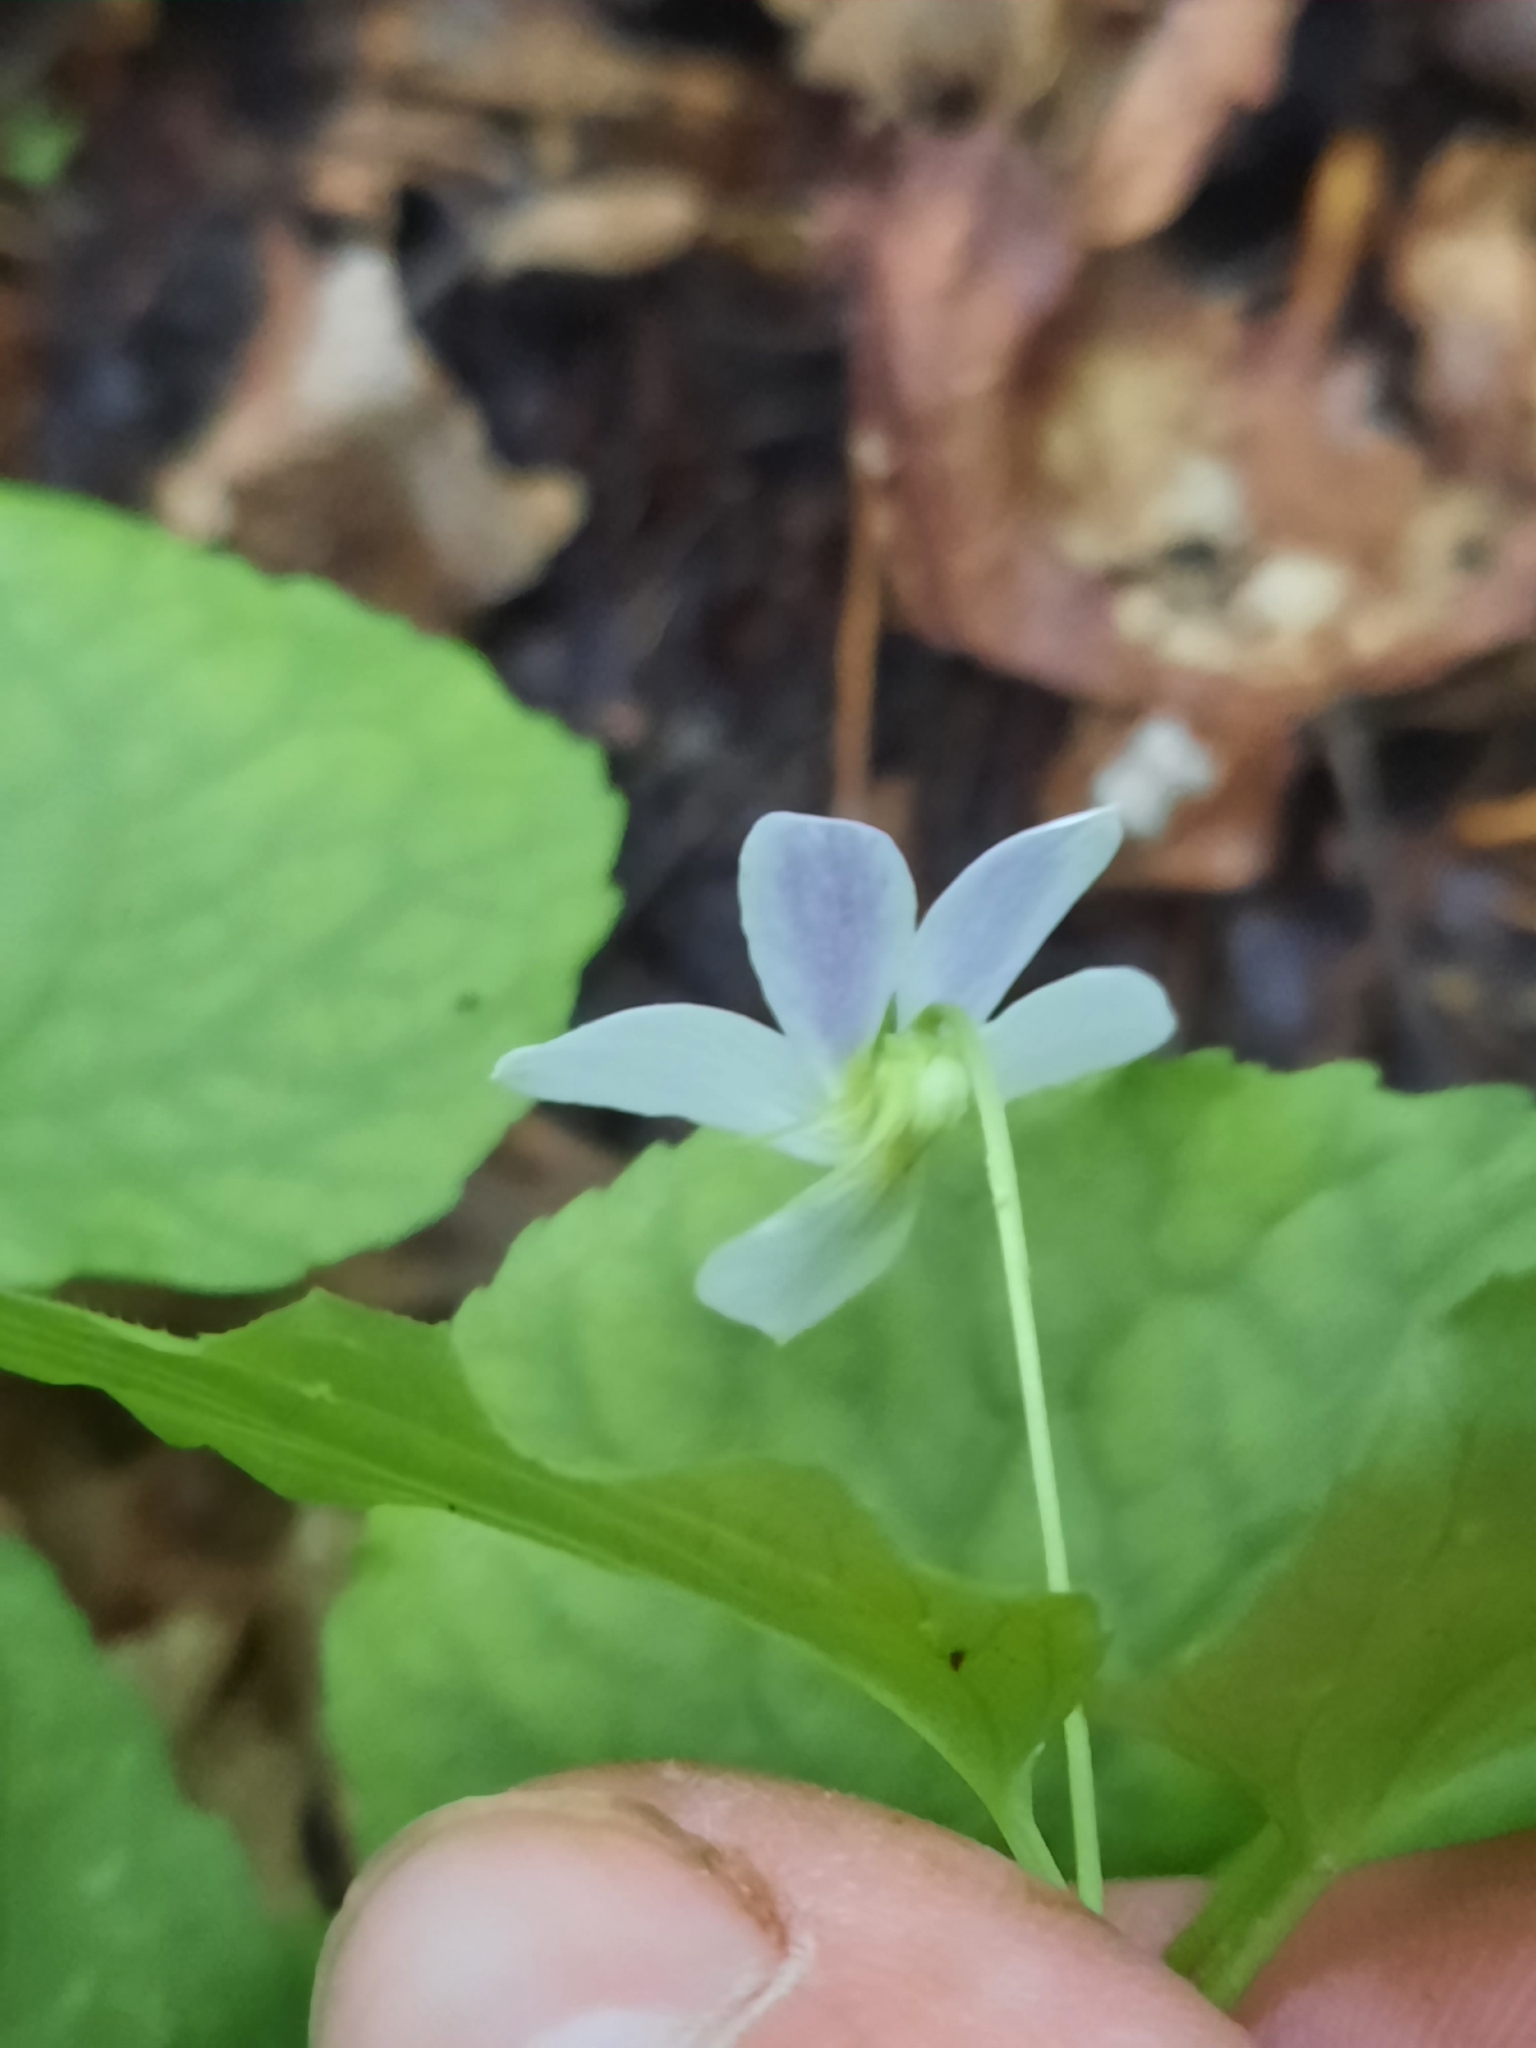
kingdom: Plantae
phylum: Tracheophyta
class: Magnoliopsida
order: Malpighiales
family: Violaceae
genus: Viola
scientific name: Viola canadensis
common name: Canada violet
